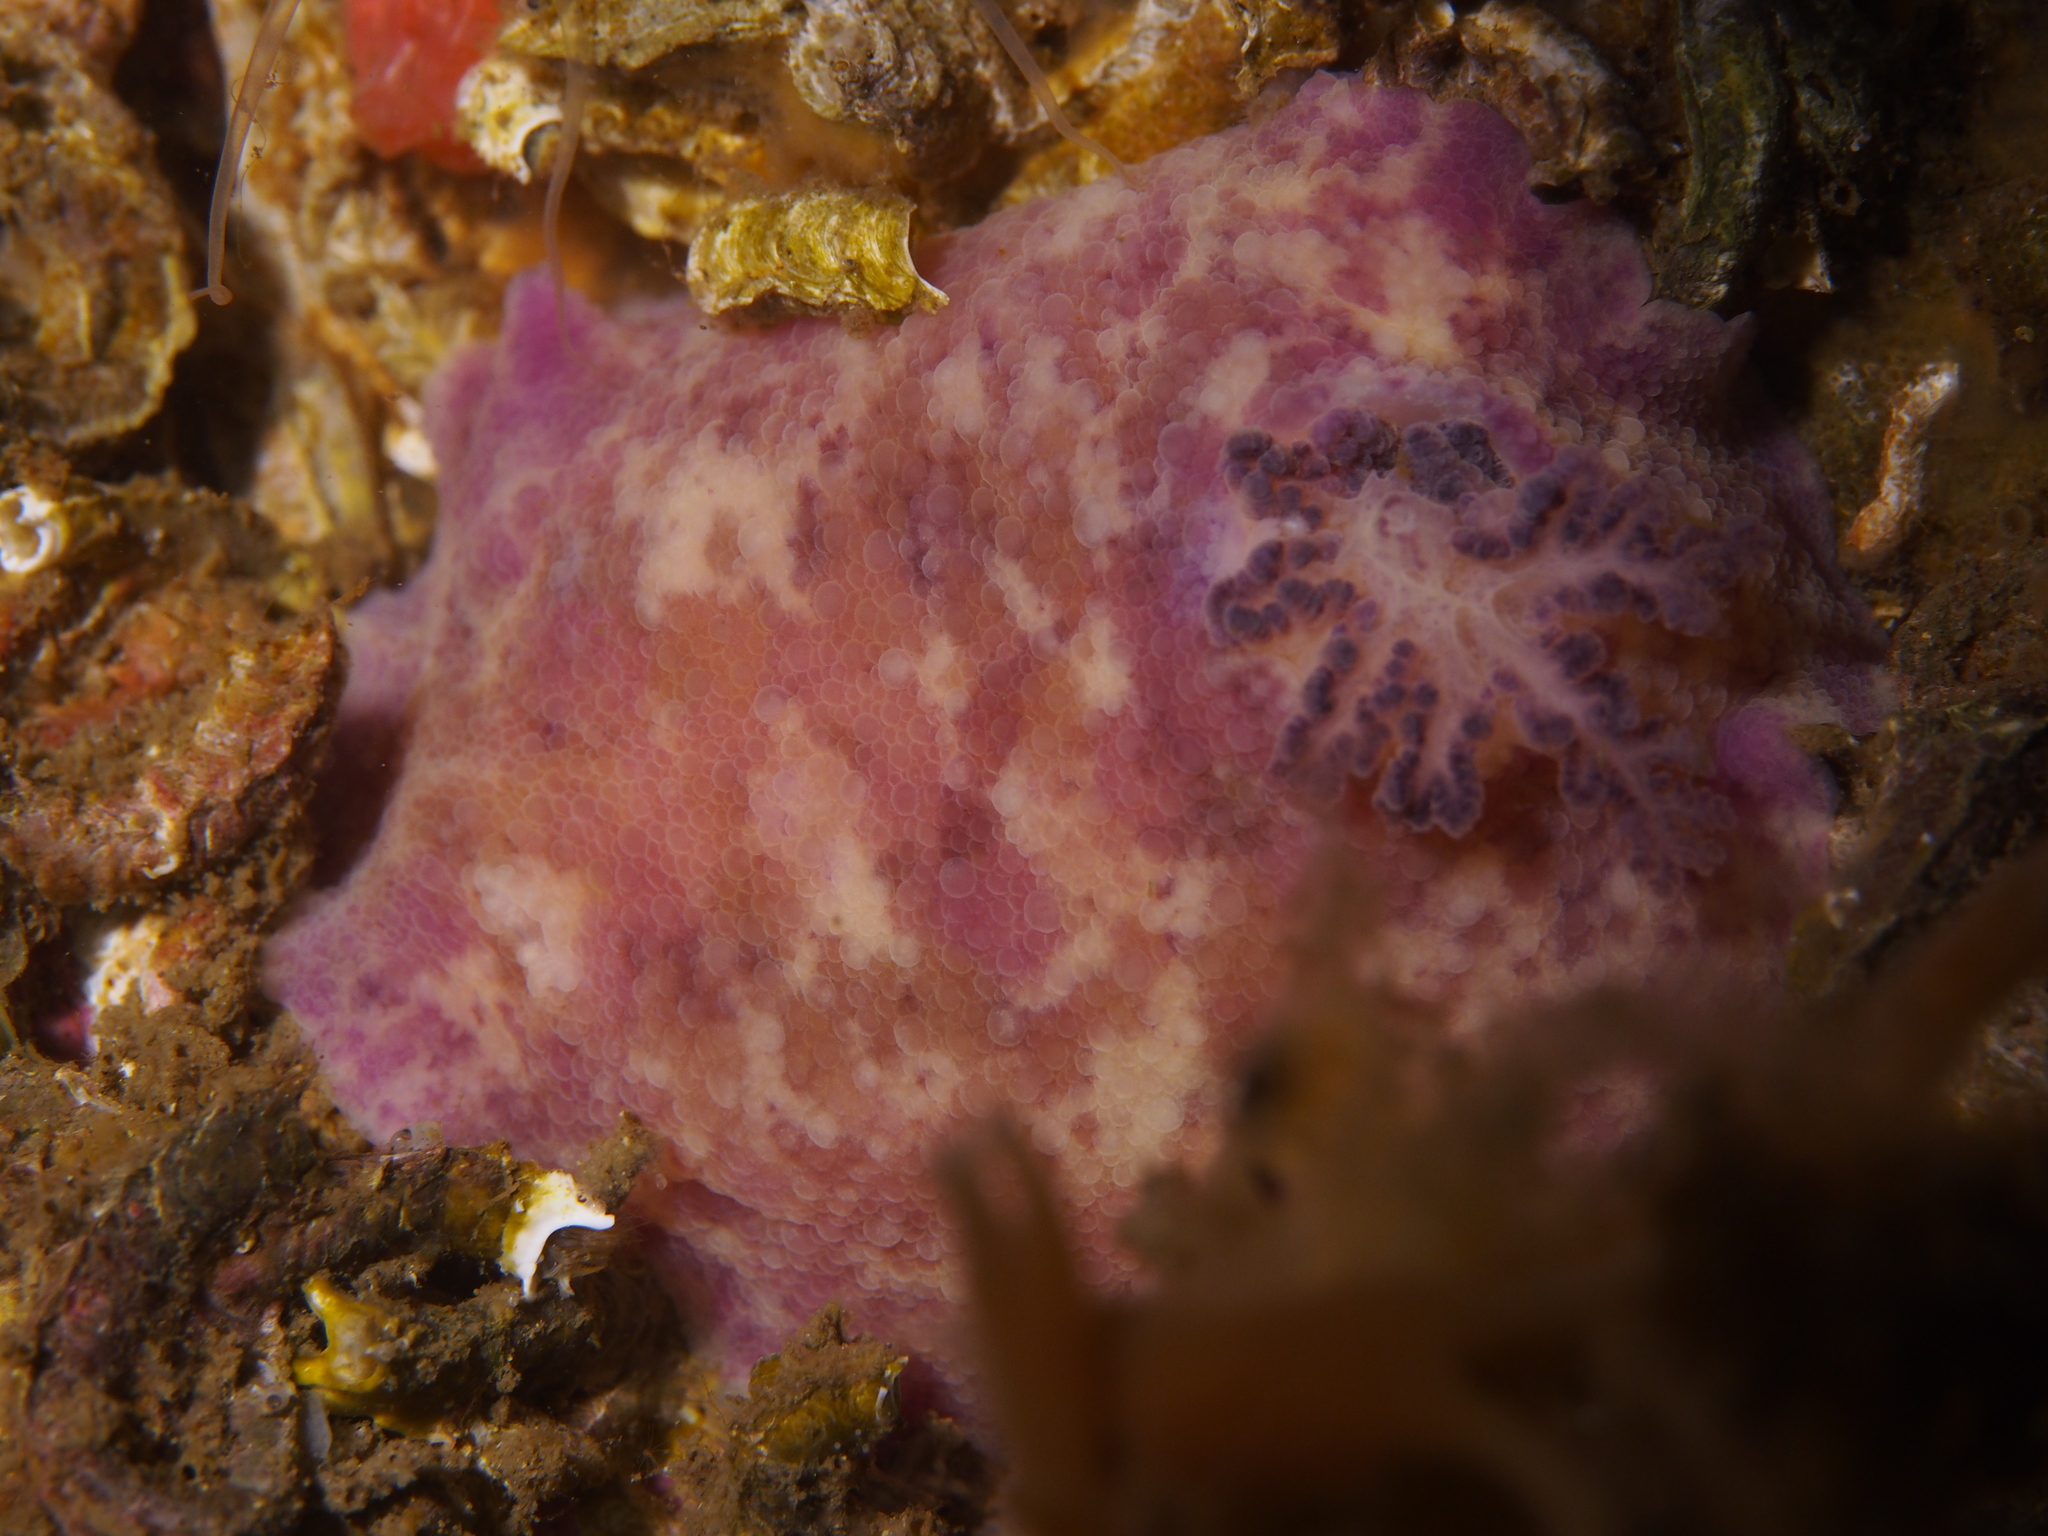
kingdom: Animalia
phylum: Mollusca
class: Gastropoda
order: Nudibranchia
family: Dorididae
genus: Doris
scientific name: Doris pseudoargus
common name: Sea lemon
